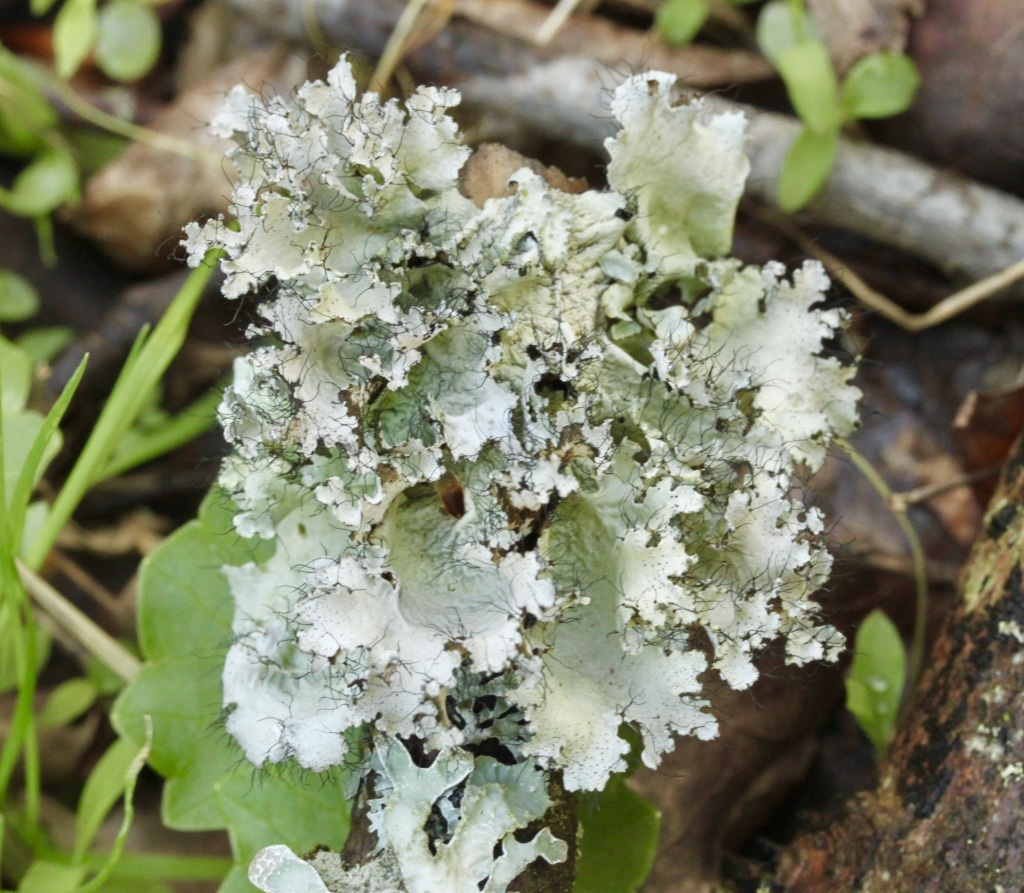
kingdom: Fungi
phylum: Ascomycota
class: Lecanoromycetes
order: Lecanorales
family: Parmeliaceae
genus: Parmotrema
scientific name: Parmotrema hypotropum
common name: Powdered ruffle lichen
